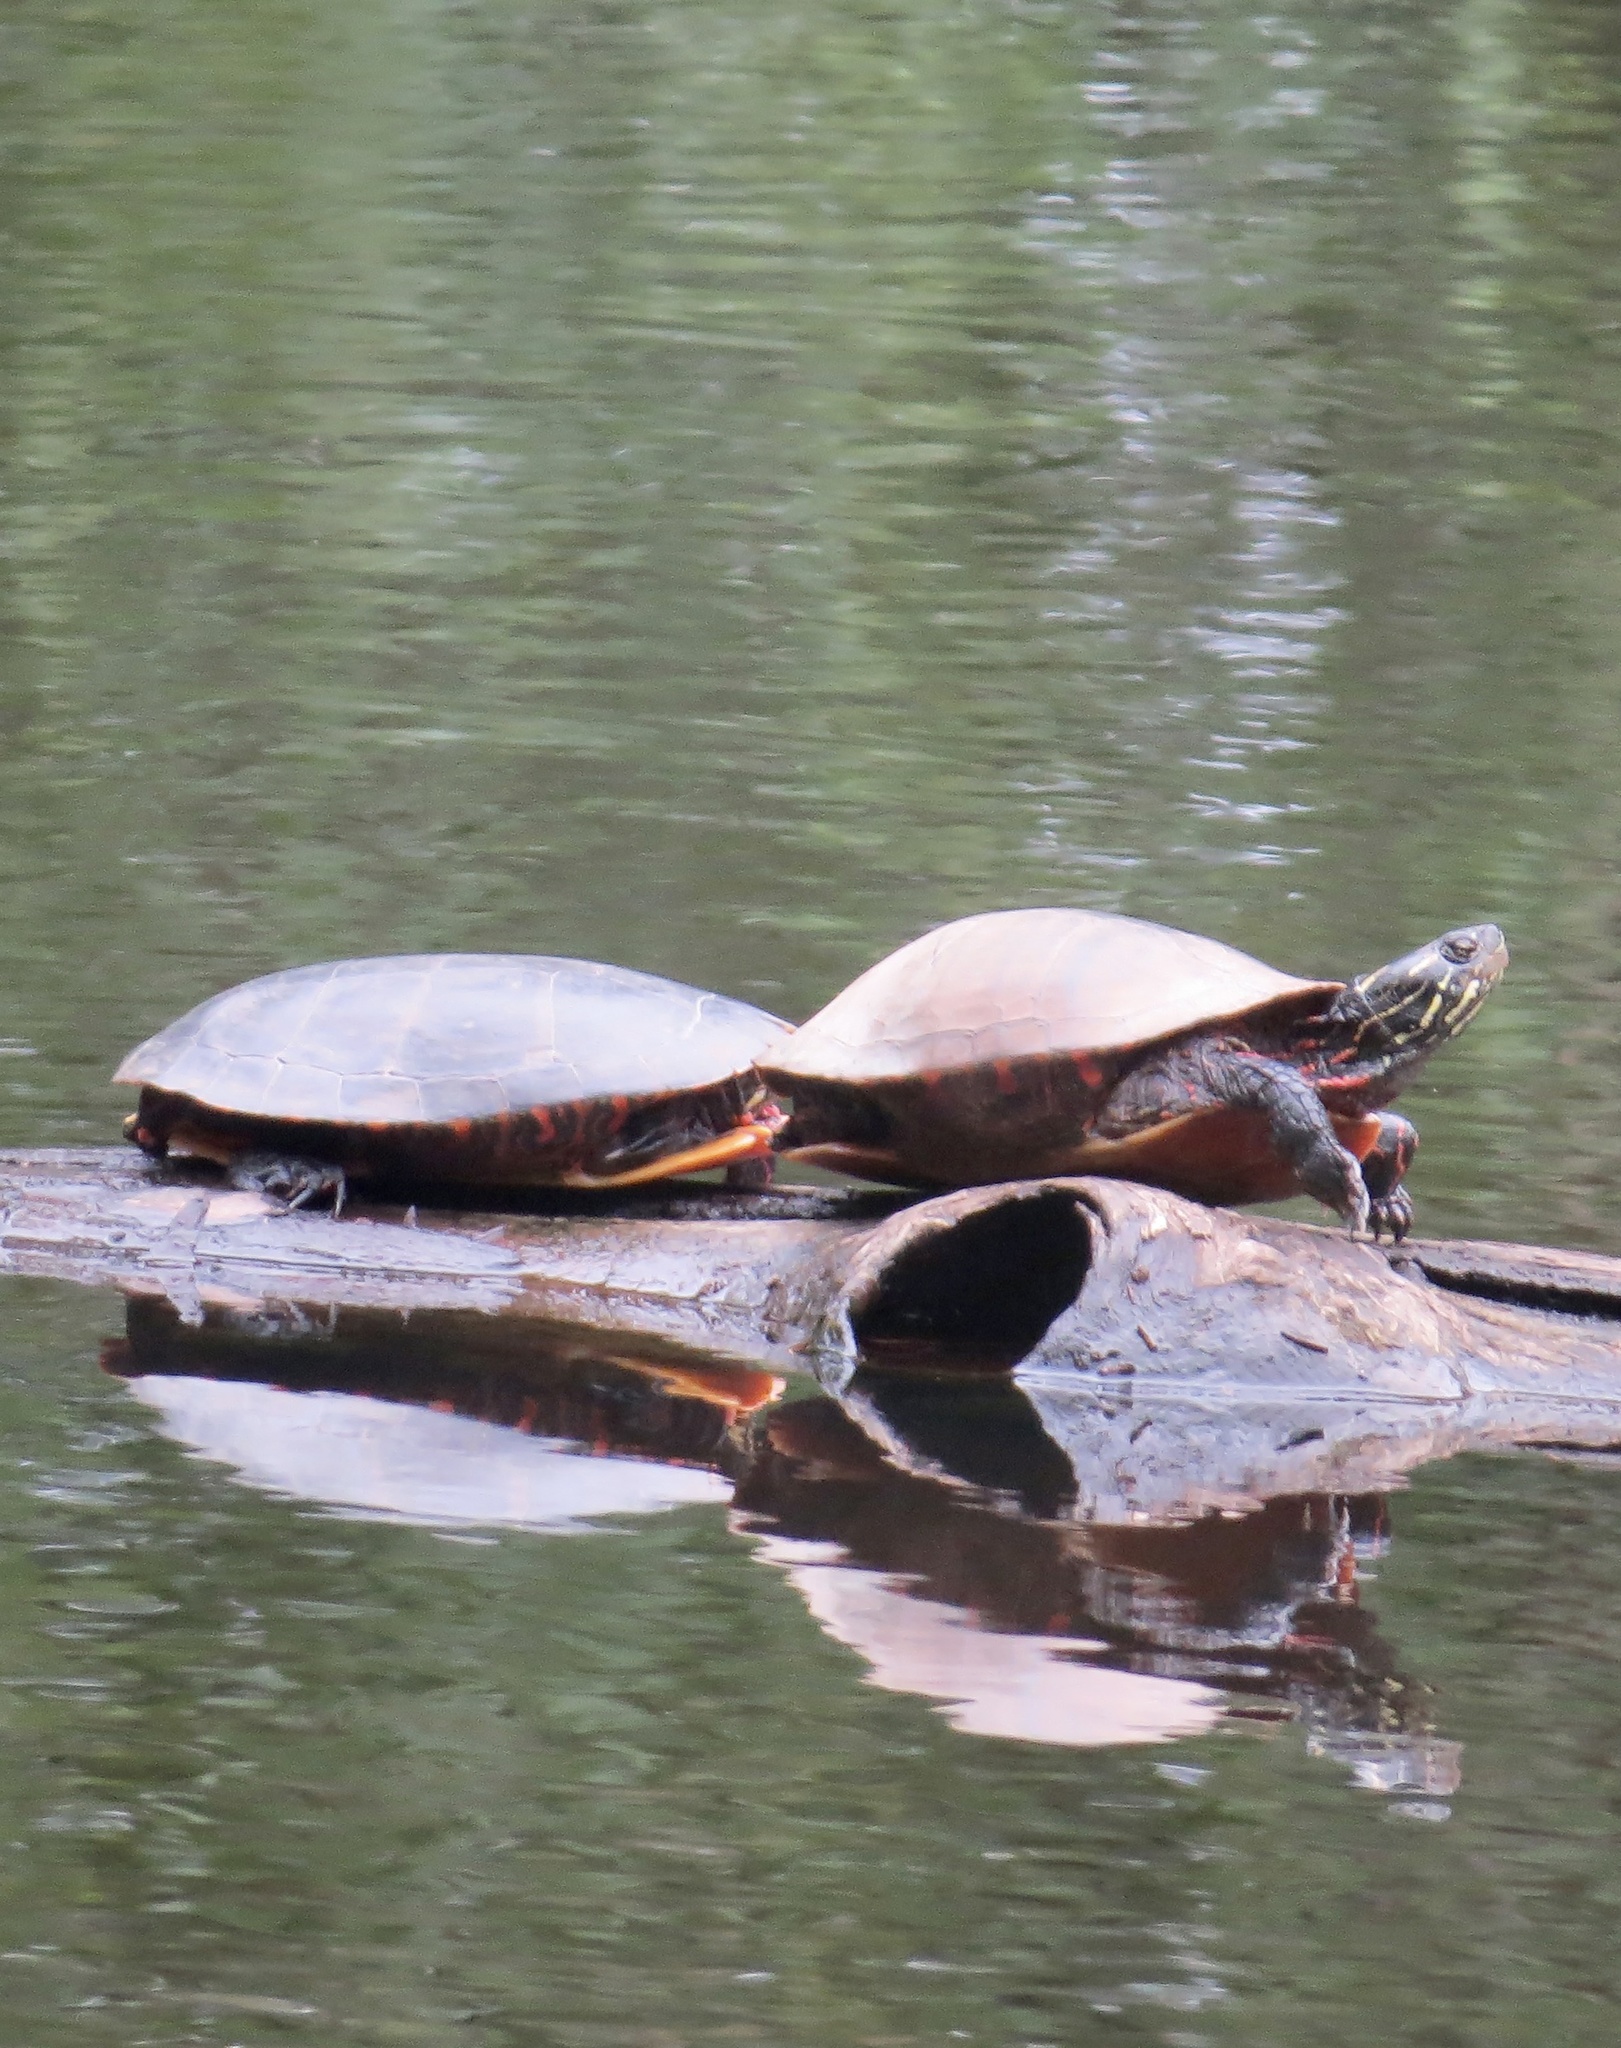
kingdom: Animalia
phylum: Chordata
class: Testudines
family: Emydidae
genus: Chrysemys
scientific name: Chrysemys picta
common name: Painted turtle
